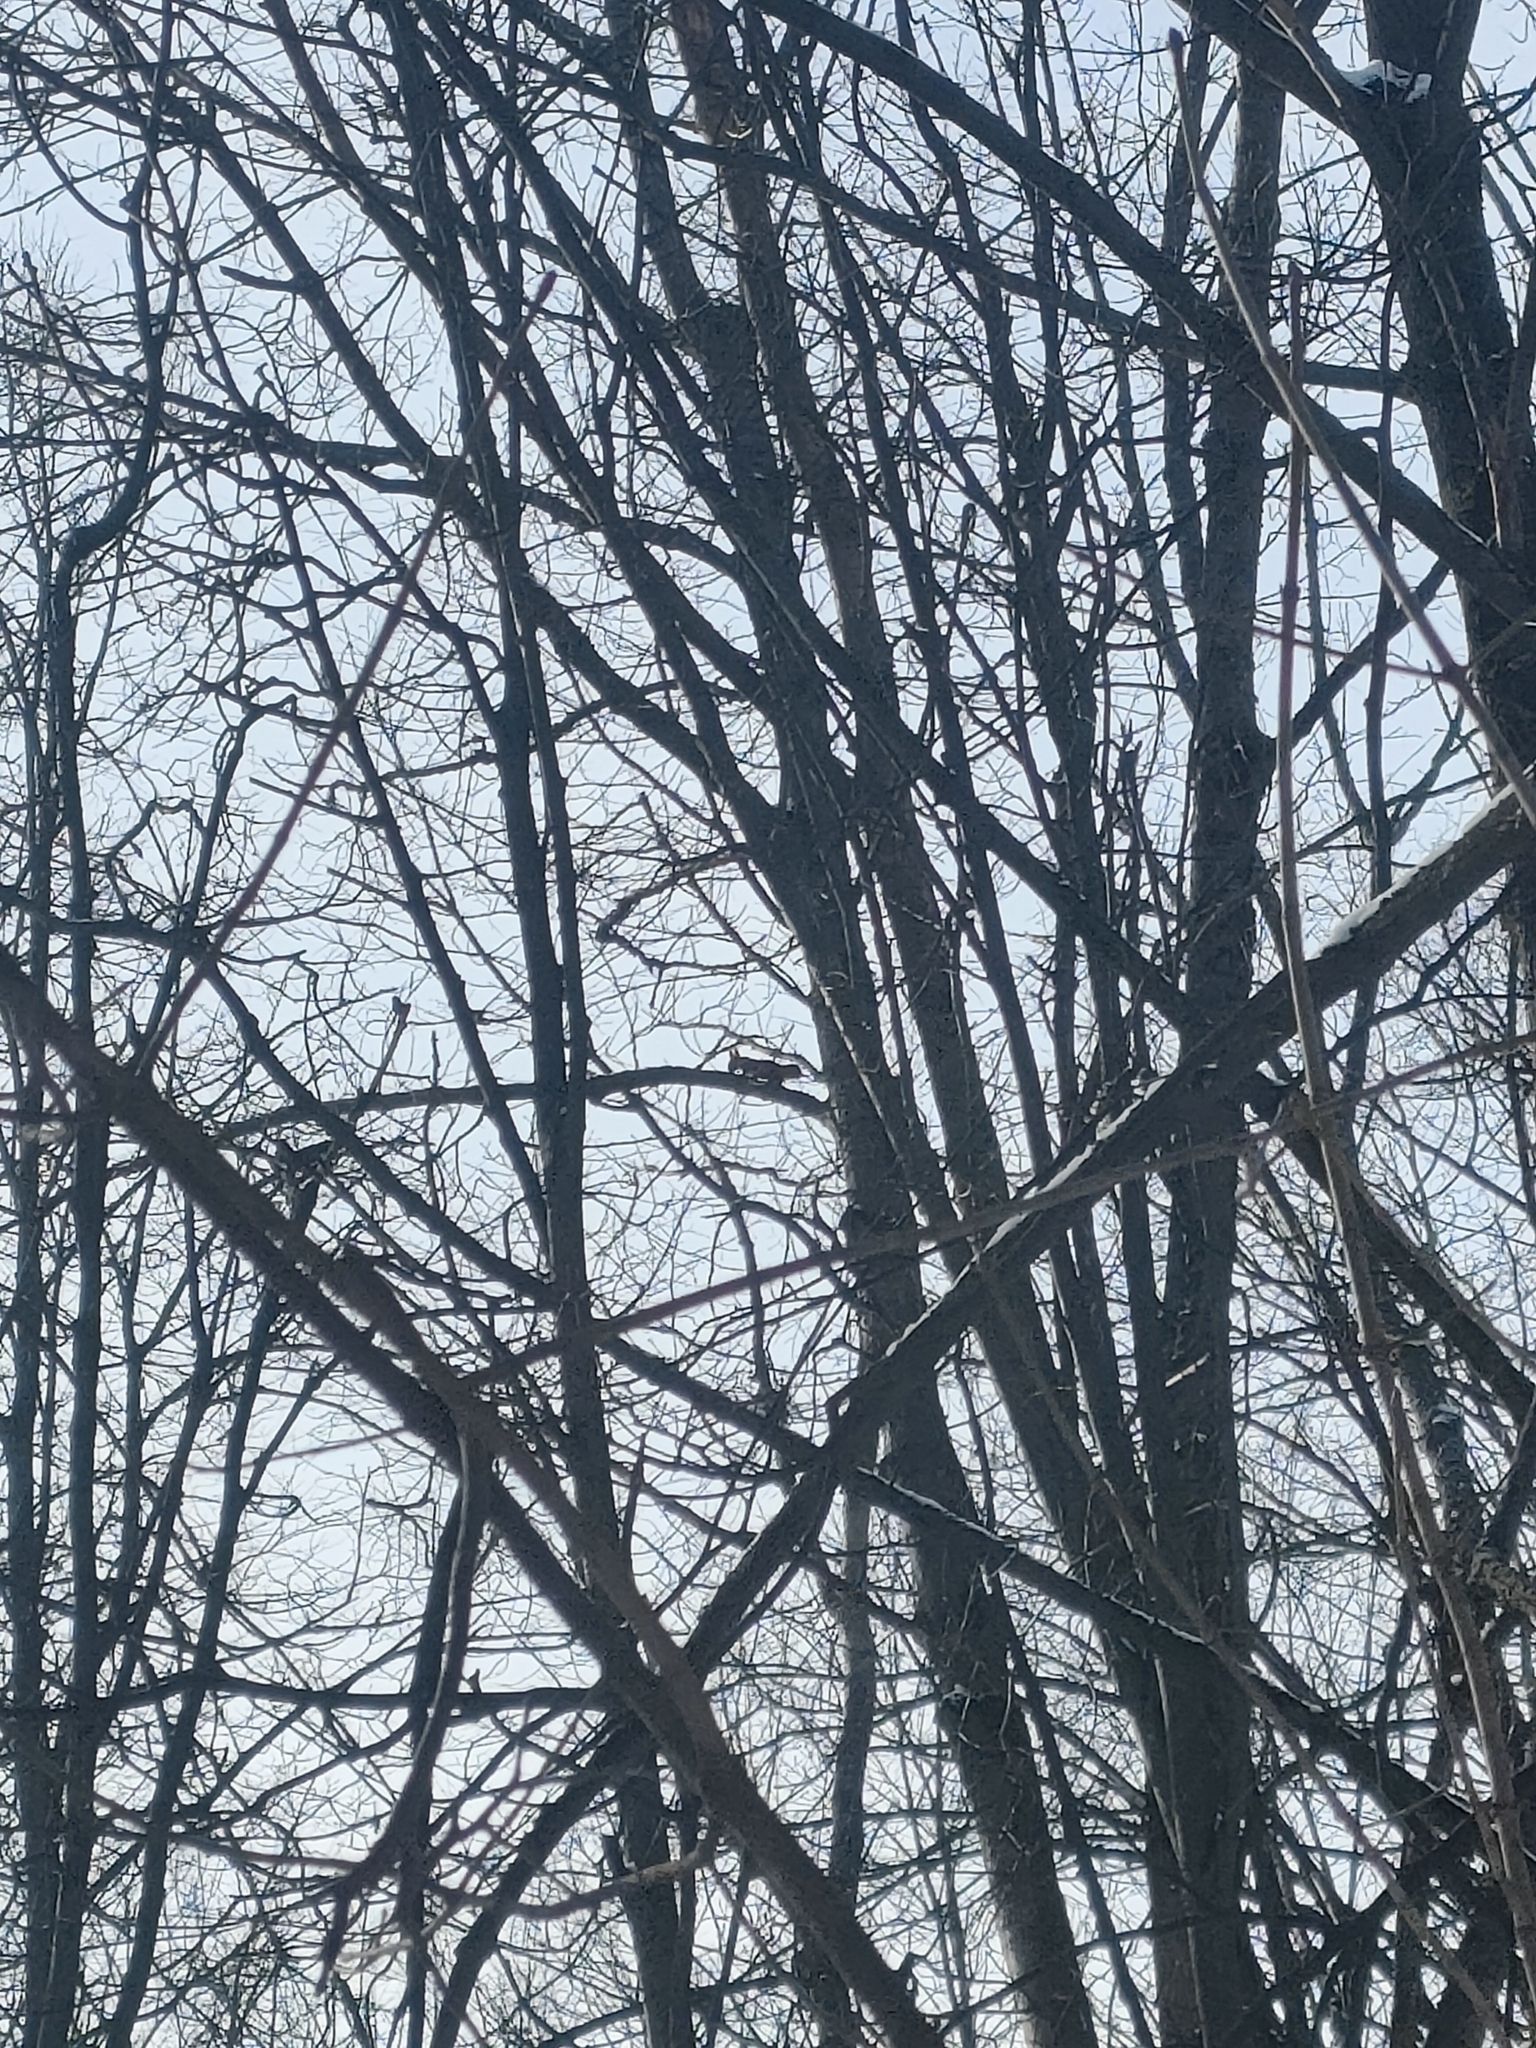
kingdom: Animalia
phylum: Chordata
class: Mammalia
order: Rodentia
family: Sciuridae
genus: Sciurus
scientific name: Sciurus vulgaris
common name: Eurasian red squirrel
